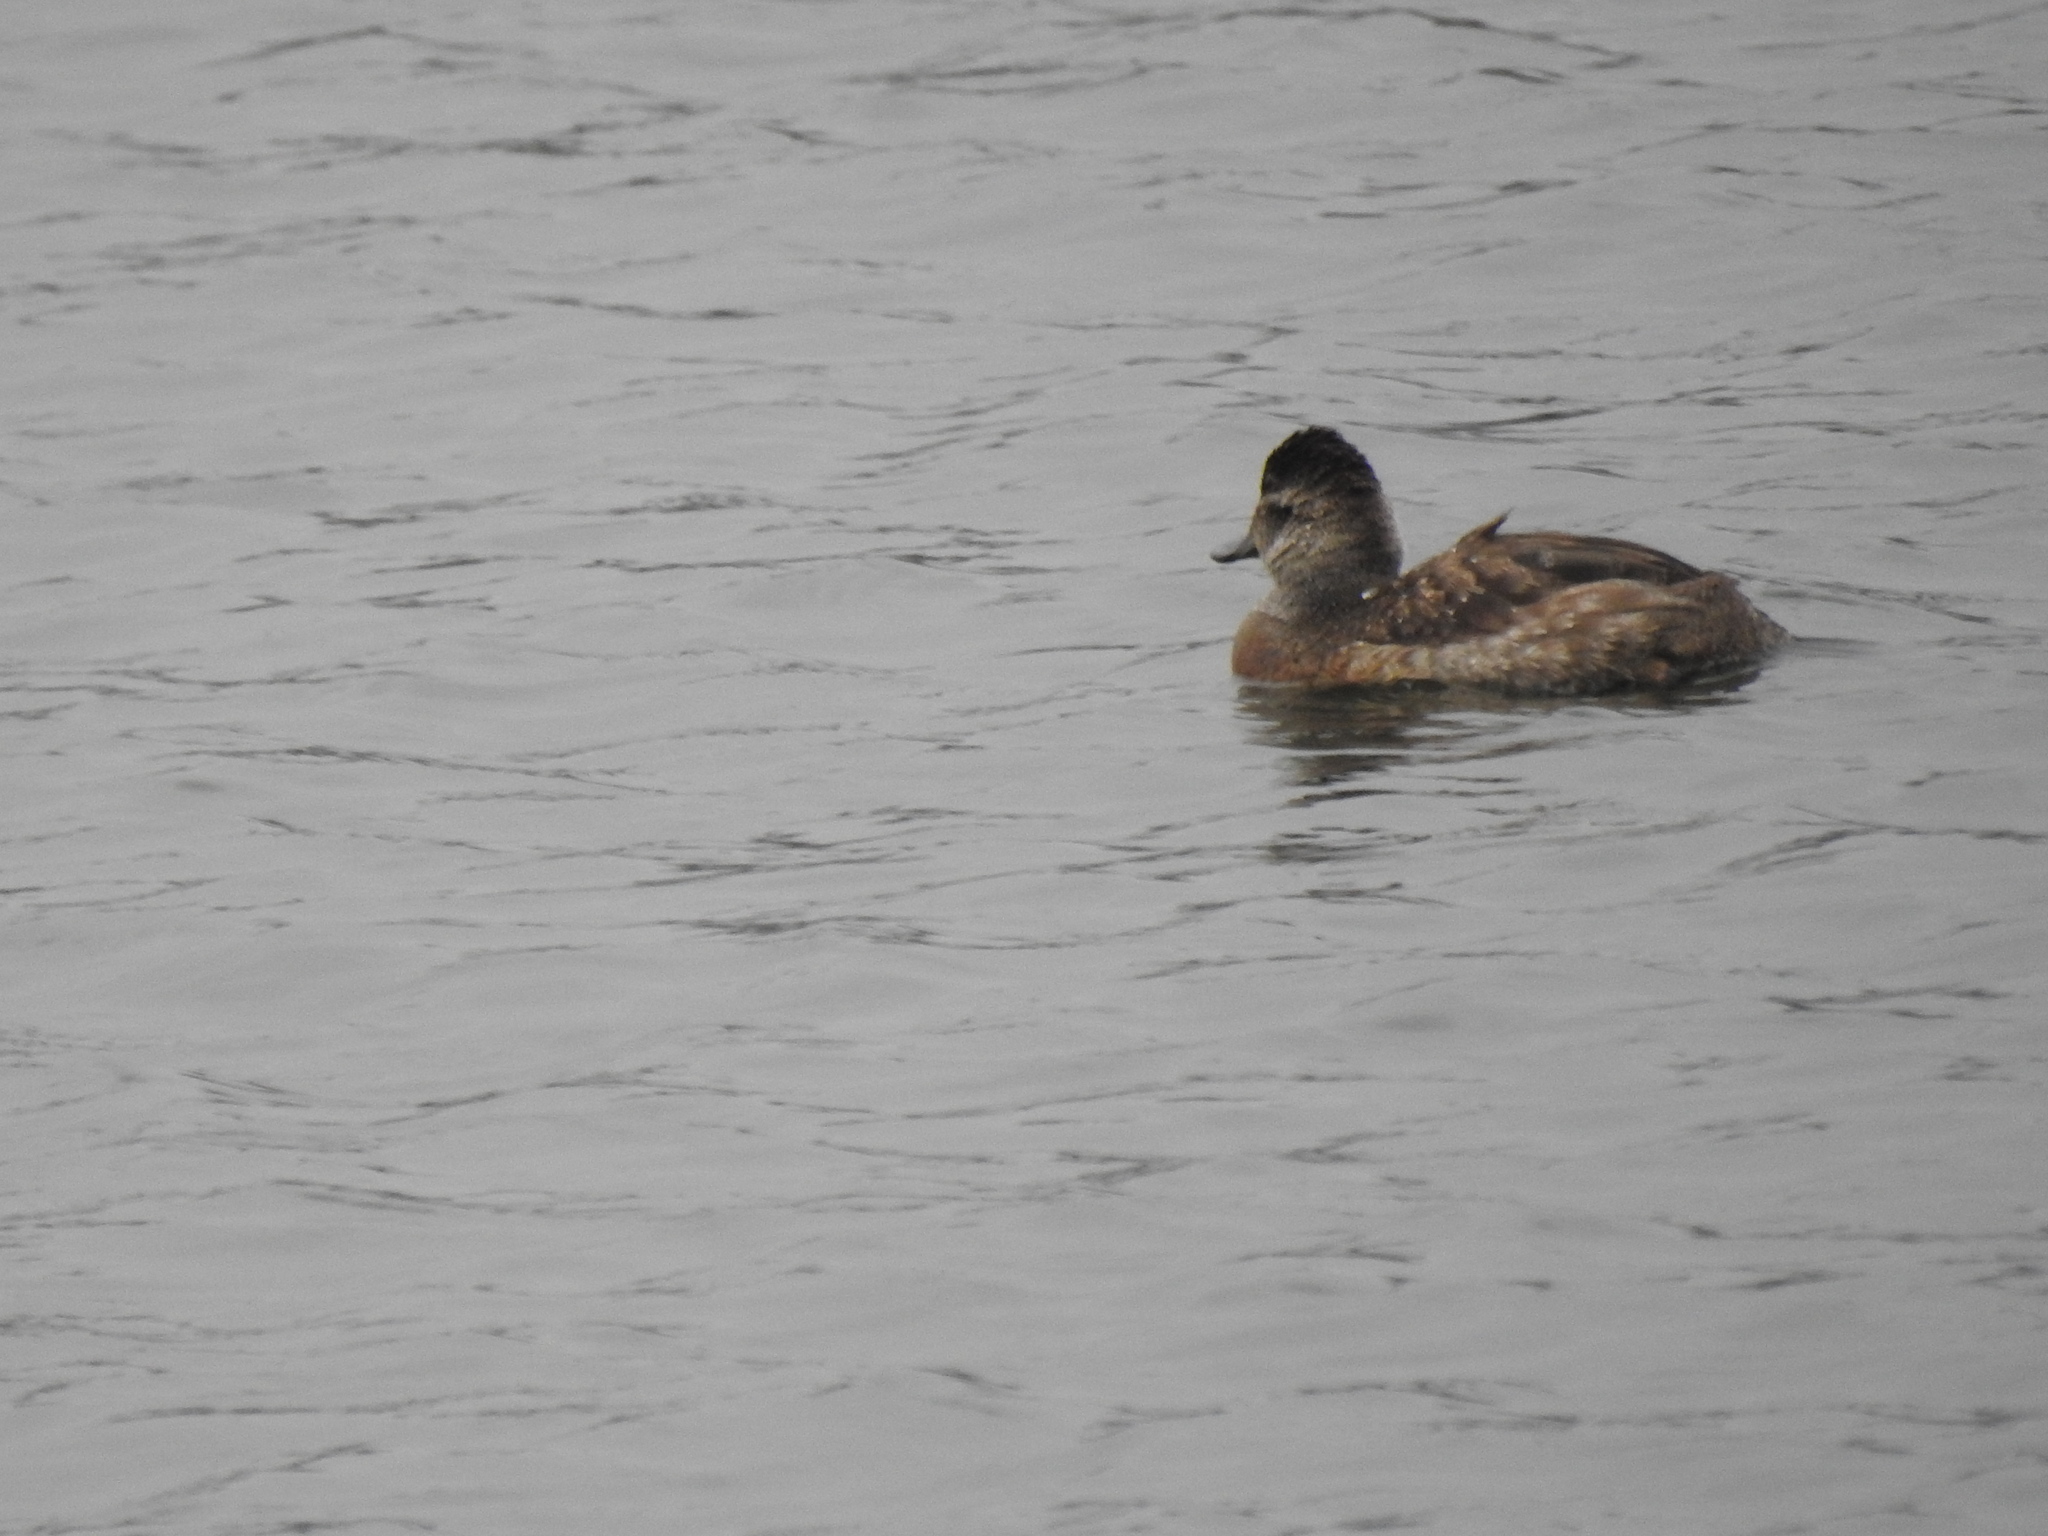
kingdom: Animalia
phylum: Chordata
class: Aves
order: Anseriformes
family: Anatidae
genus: Oxyura
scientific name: Oxyura jamaicensis
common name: Ruddy duck
